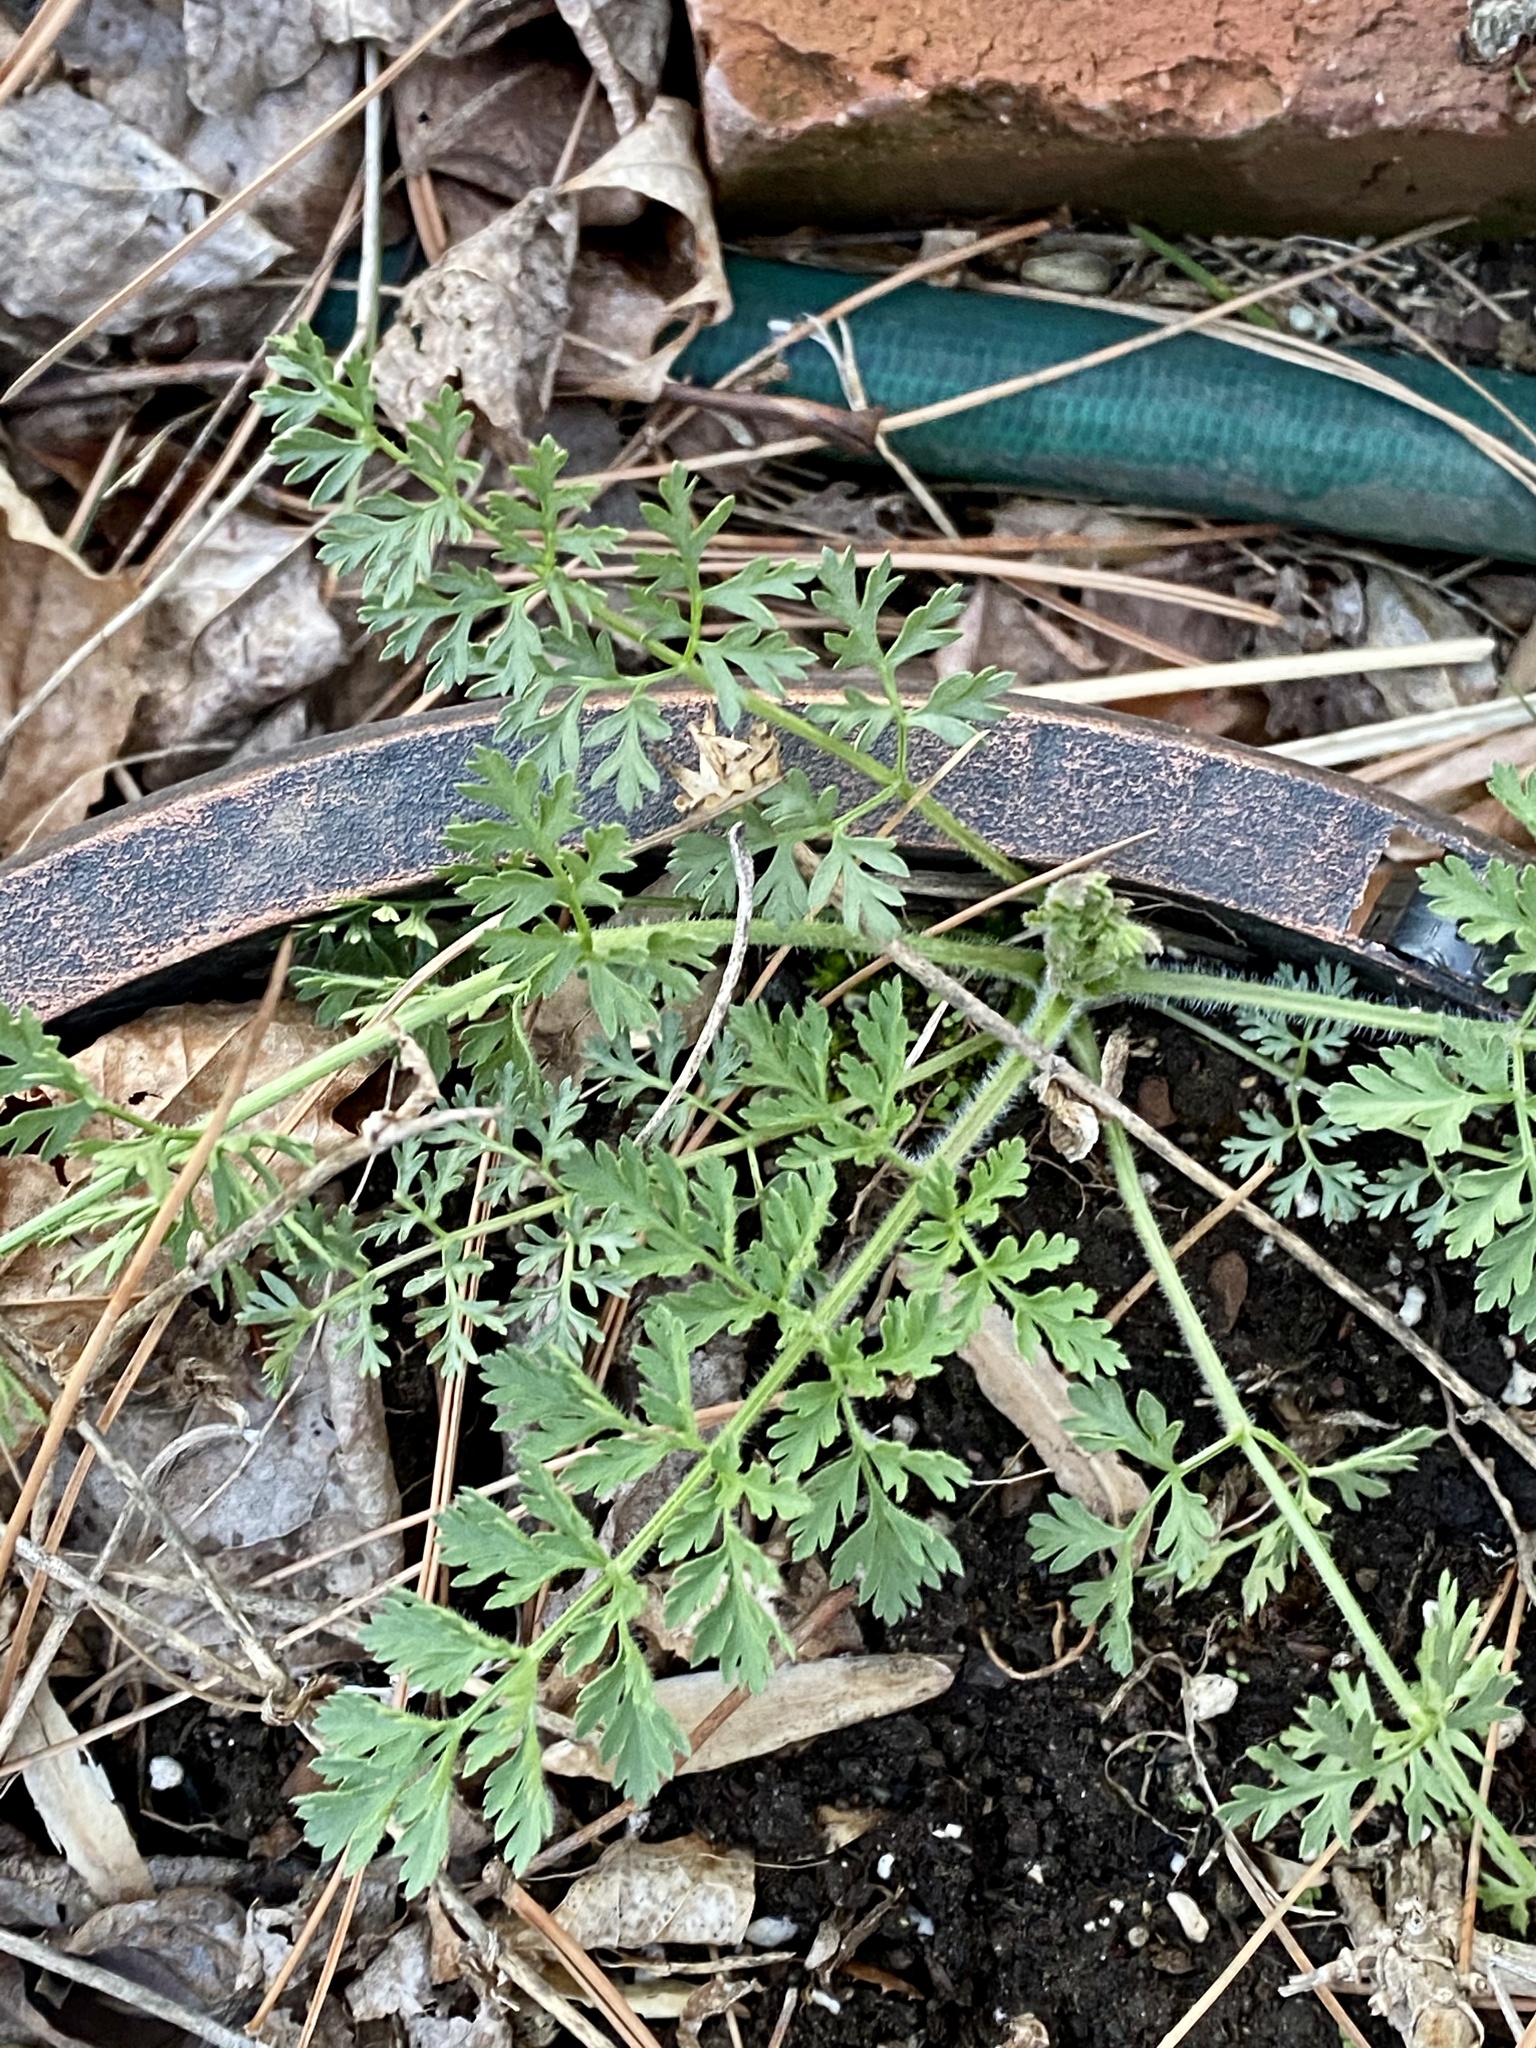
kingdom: Plantae
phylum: Tracheophyta
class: Magnoliopsida
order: Apiales
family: Apiaceae
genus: Daucus
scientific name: Daucus carota
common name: Wild carrot
